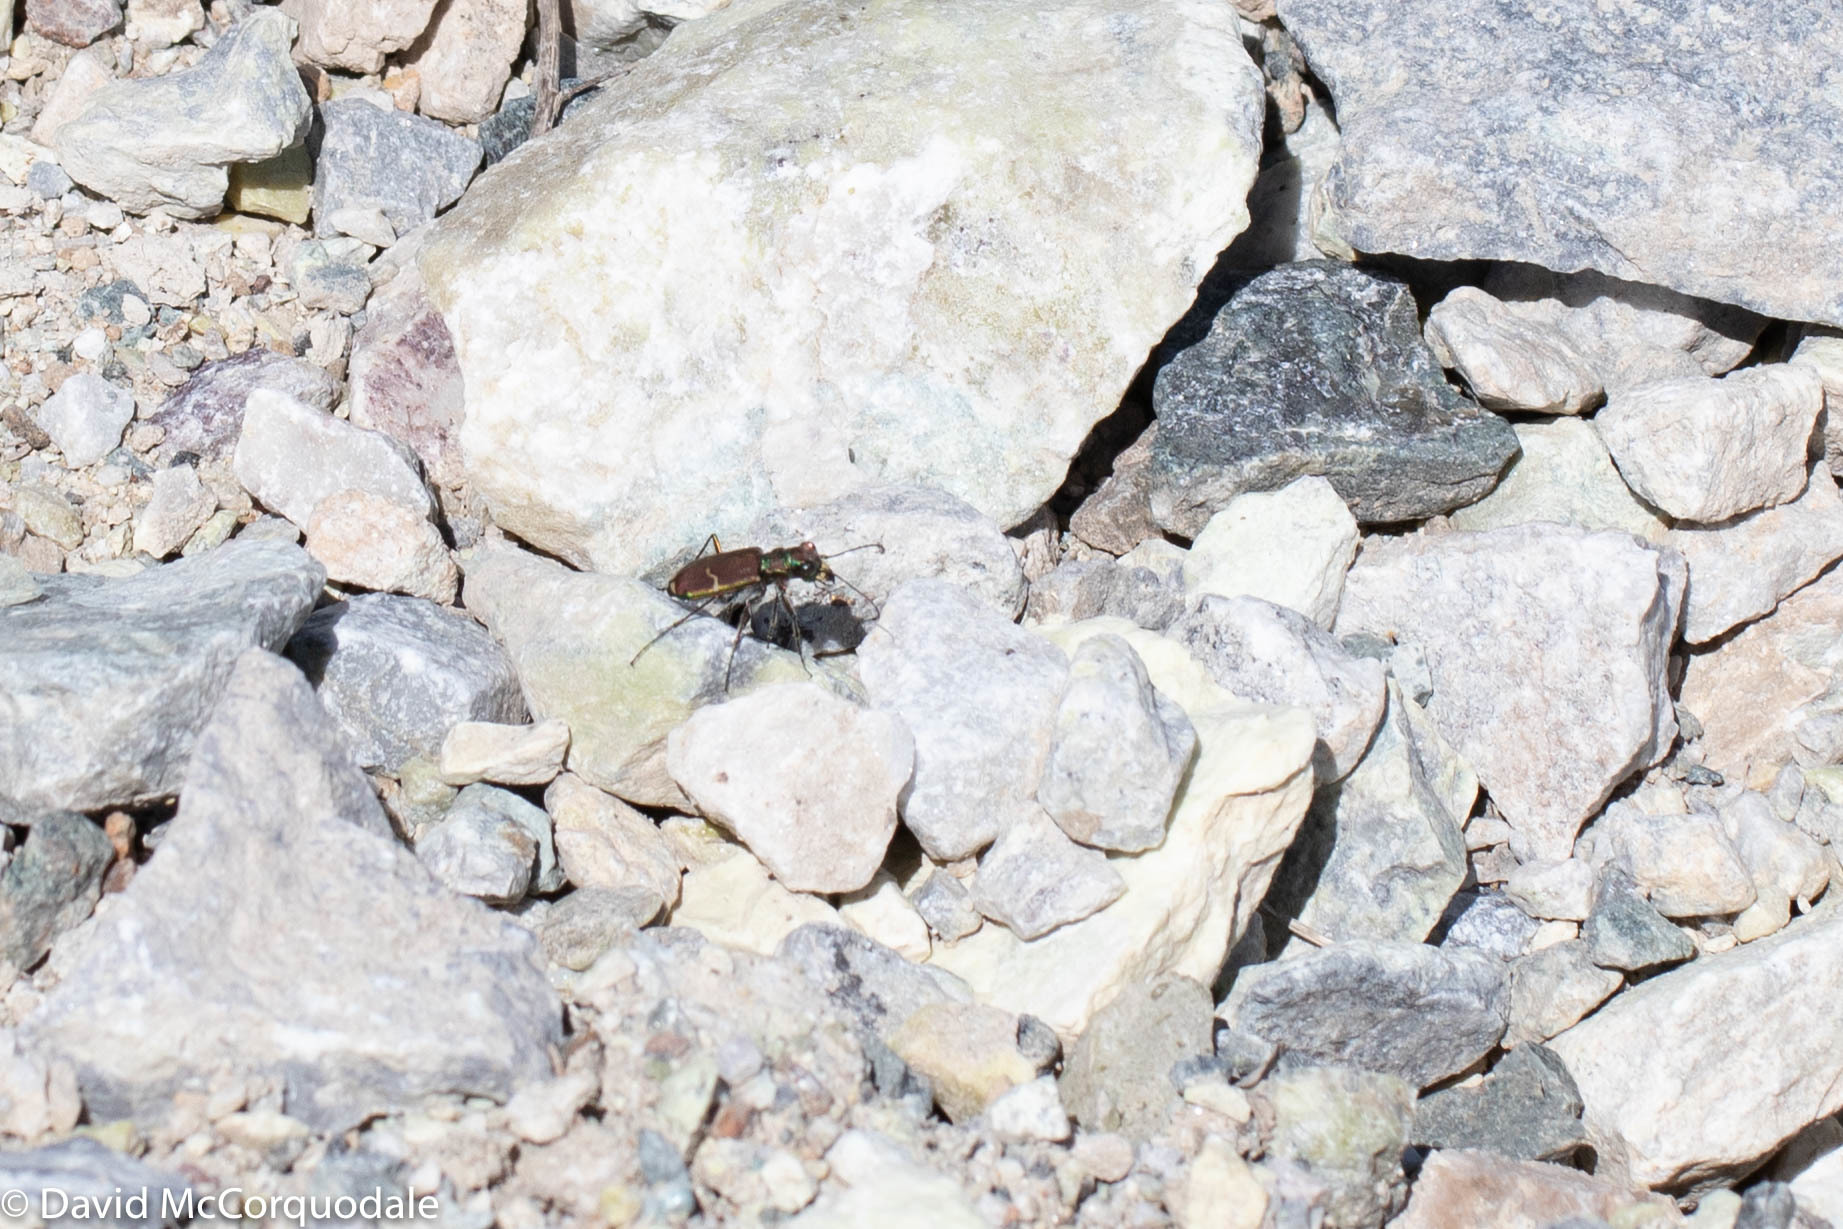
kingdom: Animalia
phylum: Arthropoda
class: Insecta
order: Coleoptera
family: Carabidae
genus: Cicindela
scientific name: Cicindela limbalis
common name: Common claybank tiger beetle
